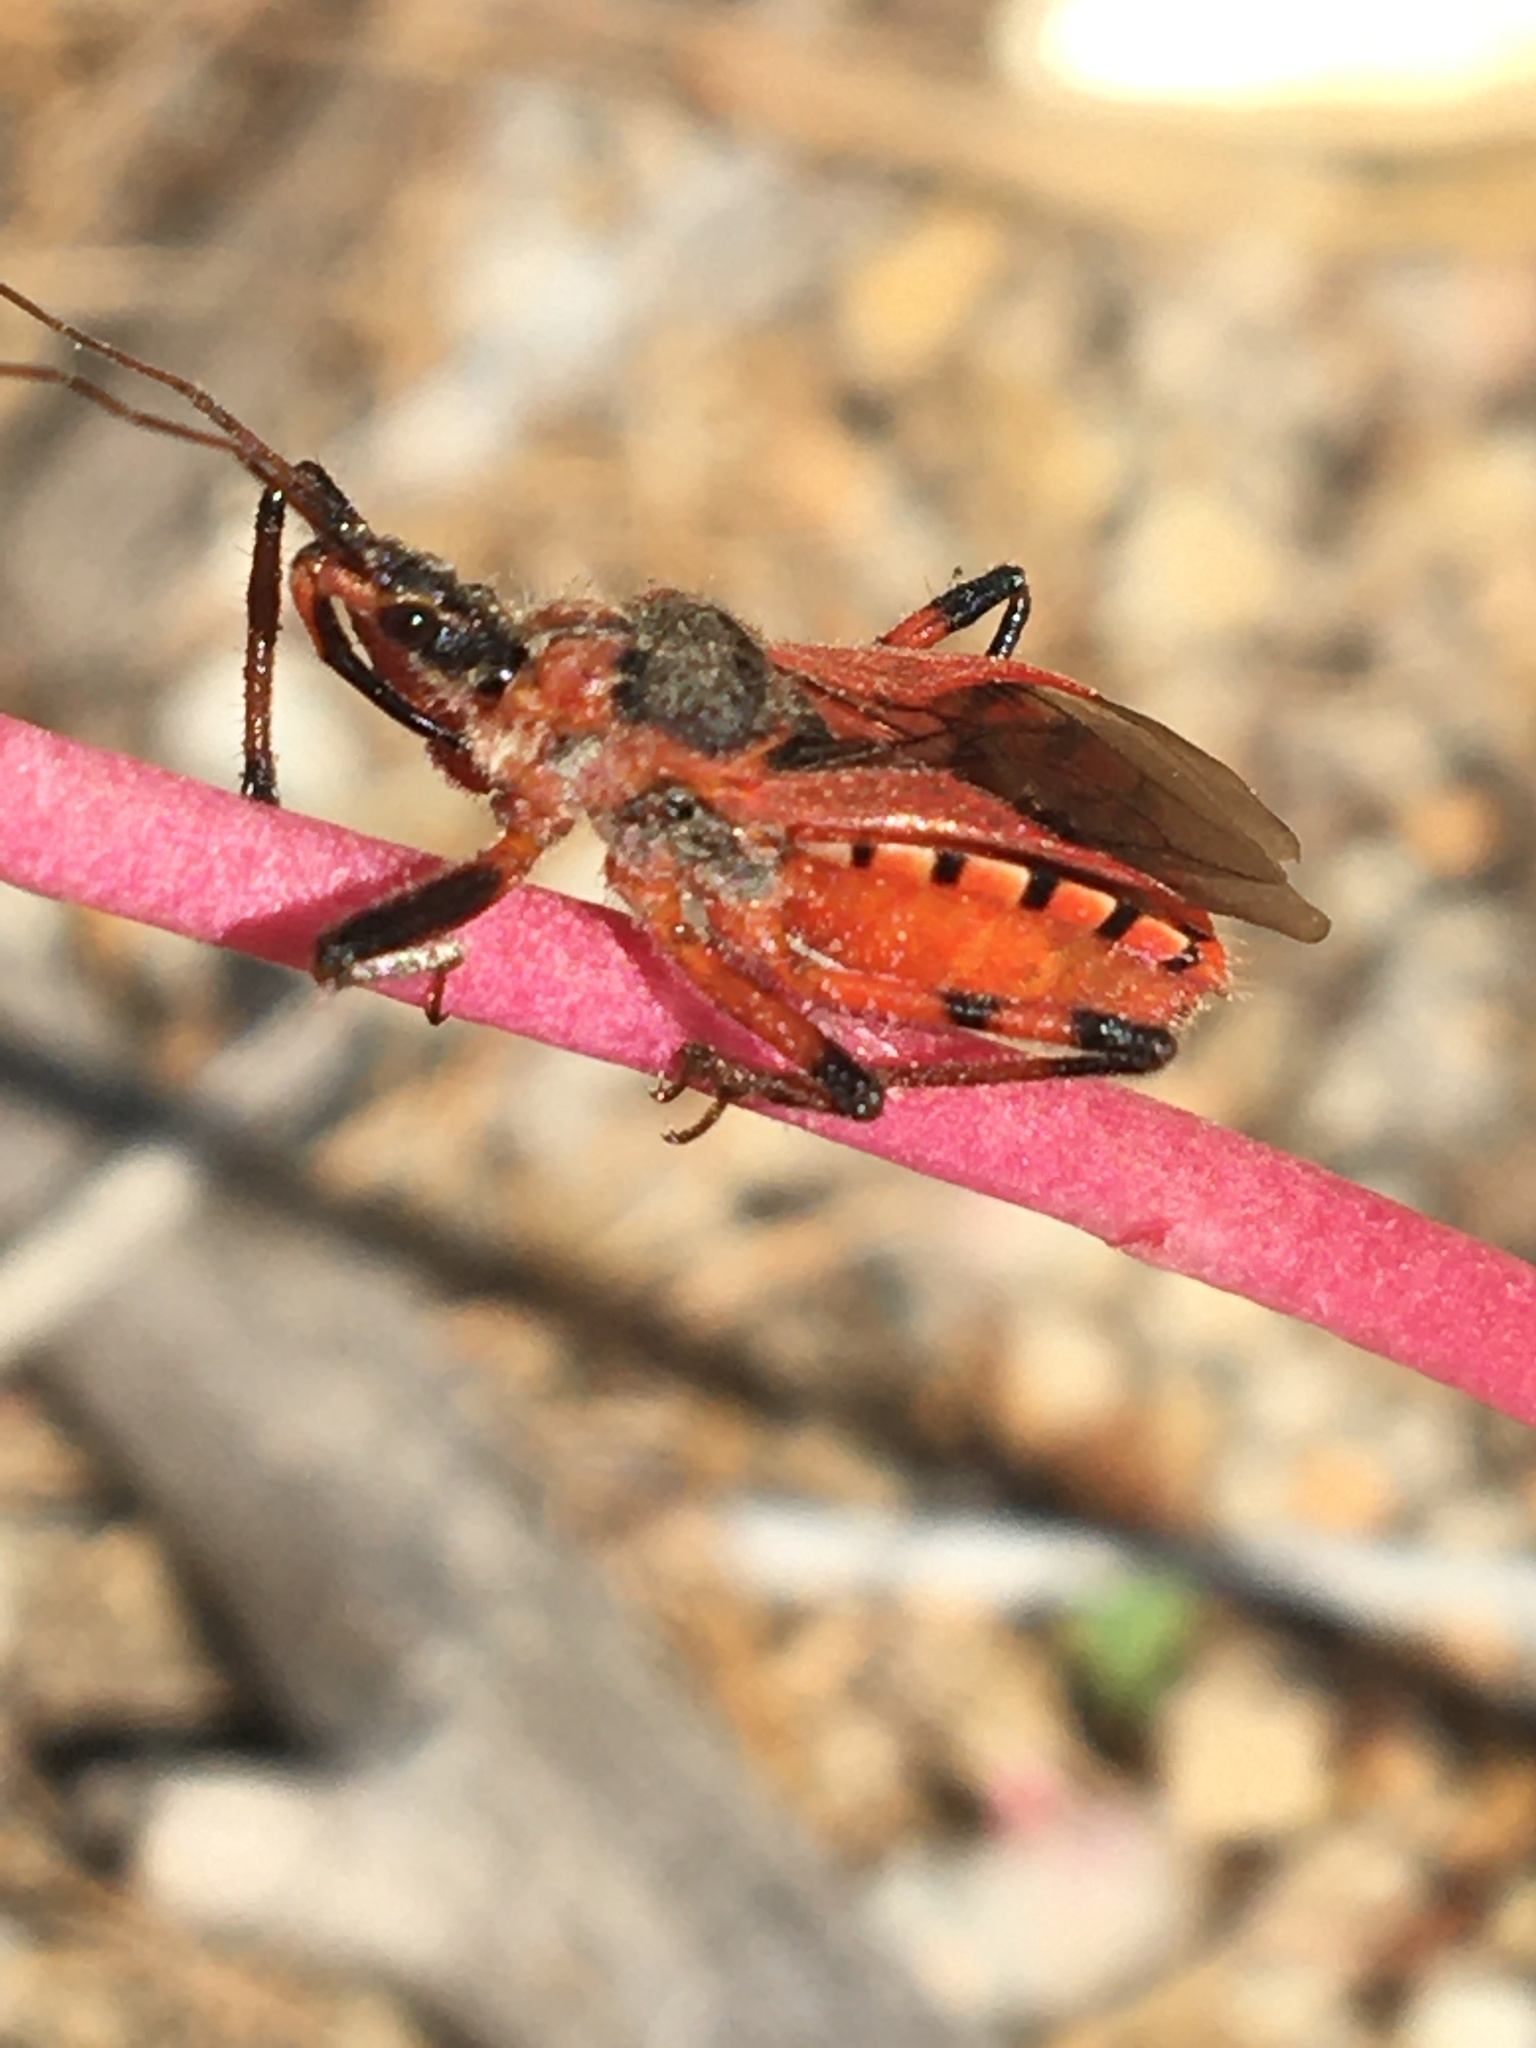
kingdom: Animalia
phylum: Arthropoda
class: Insecta
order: Hemiptera
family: Reduviidae
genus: Rhynocoris
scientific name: Rhynocoris ventralis
